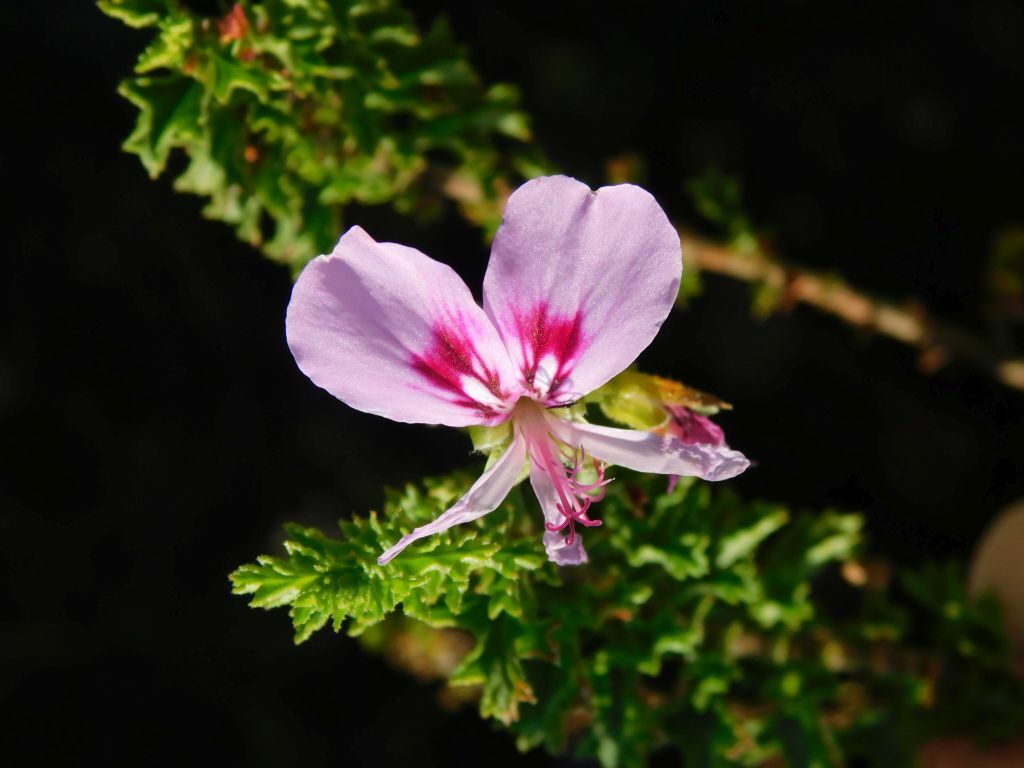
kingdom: Plantae
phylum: Tracheophyta
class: Magnoliopsida
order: Geraniales
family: Geraniaceae
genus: Pelargonium
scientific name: Pelargonium hermaniifolium
